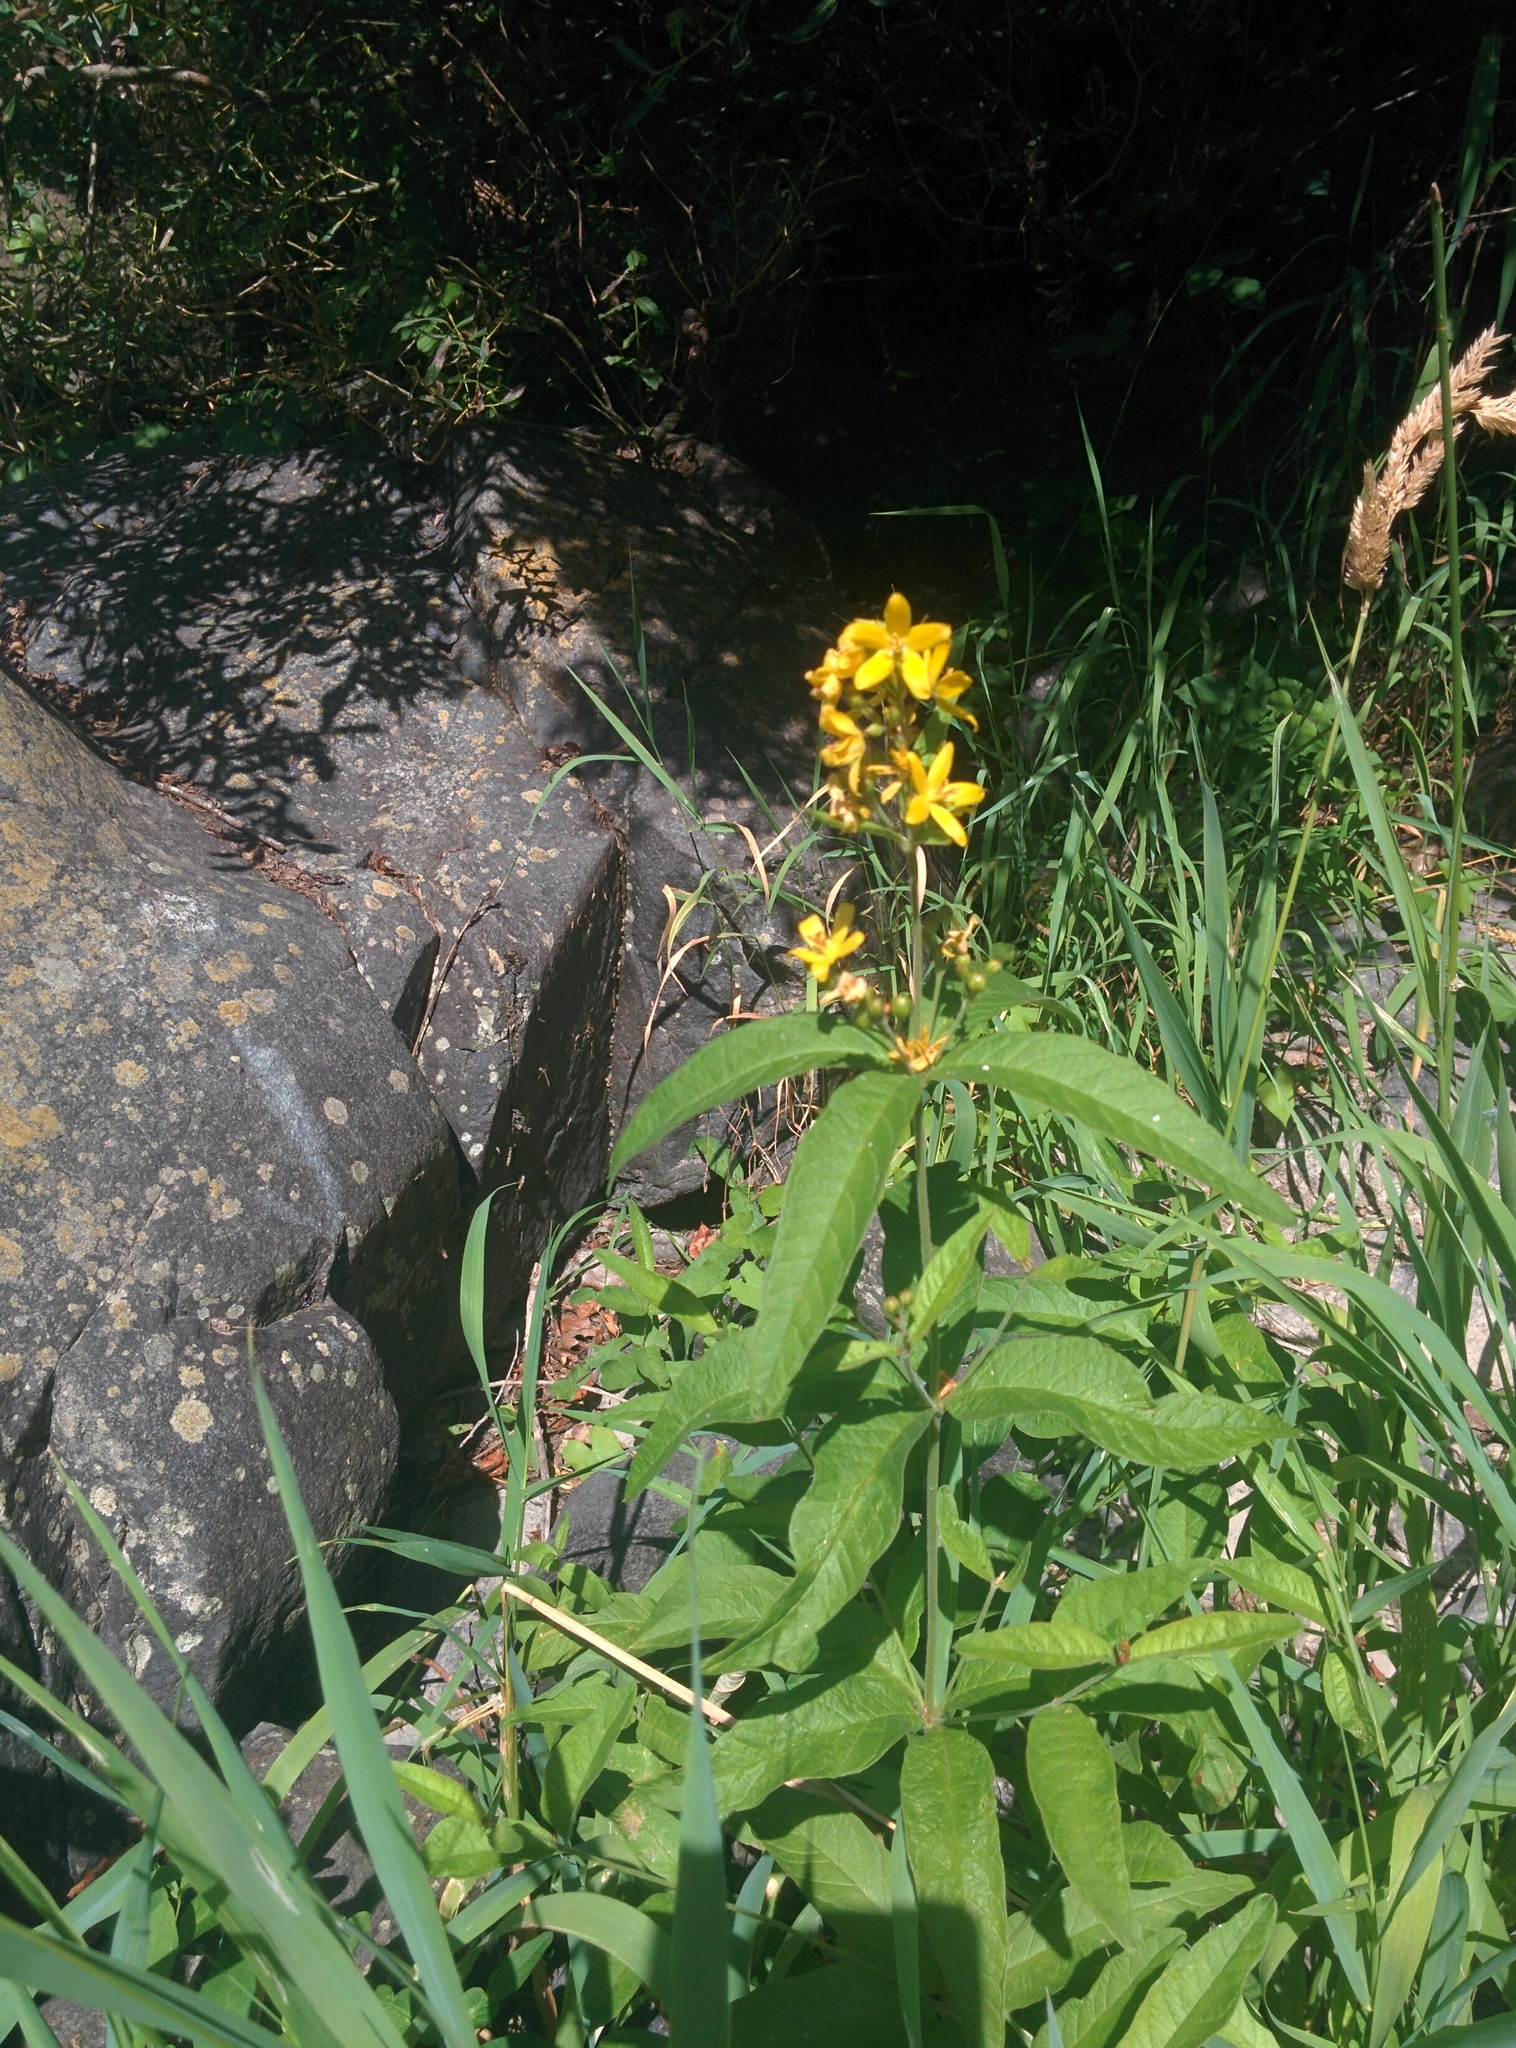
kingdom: Plantae
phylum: Tracheophyta
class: Magnoliopsida
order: Ericales
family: Primulaceae
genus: Lysimachia
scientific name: Lysimachia vulgaris
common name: Yellow loosestrife
